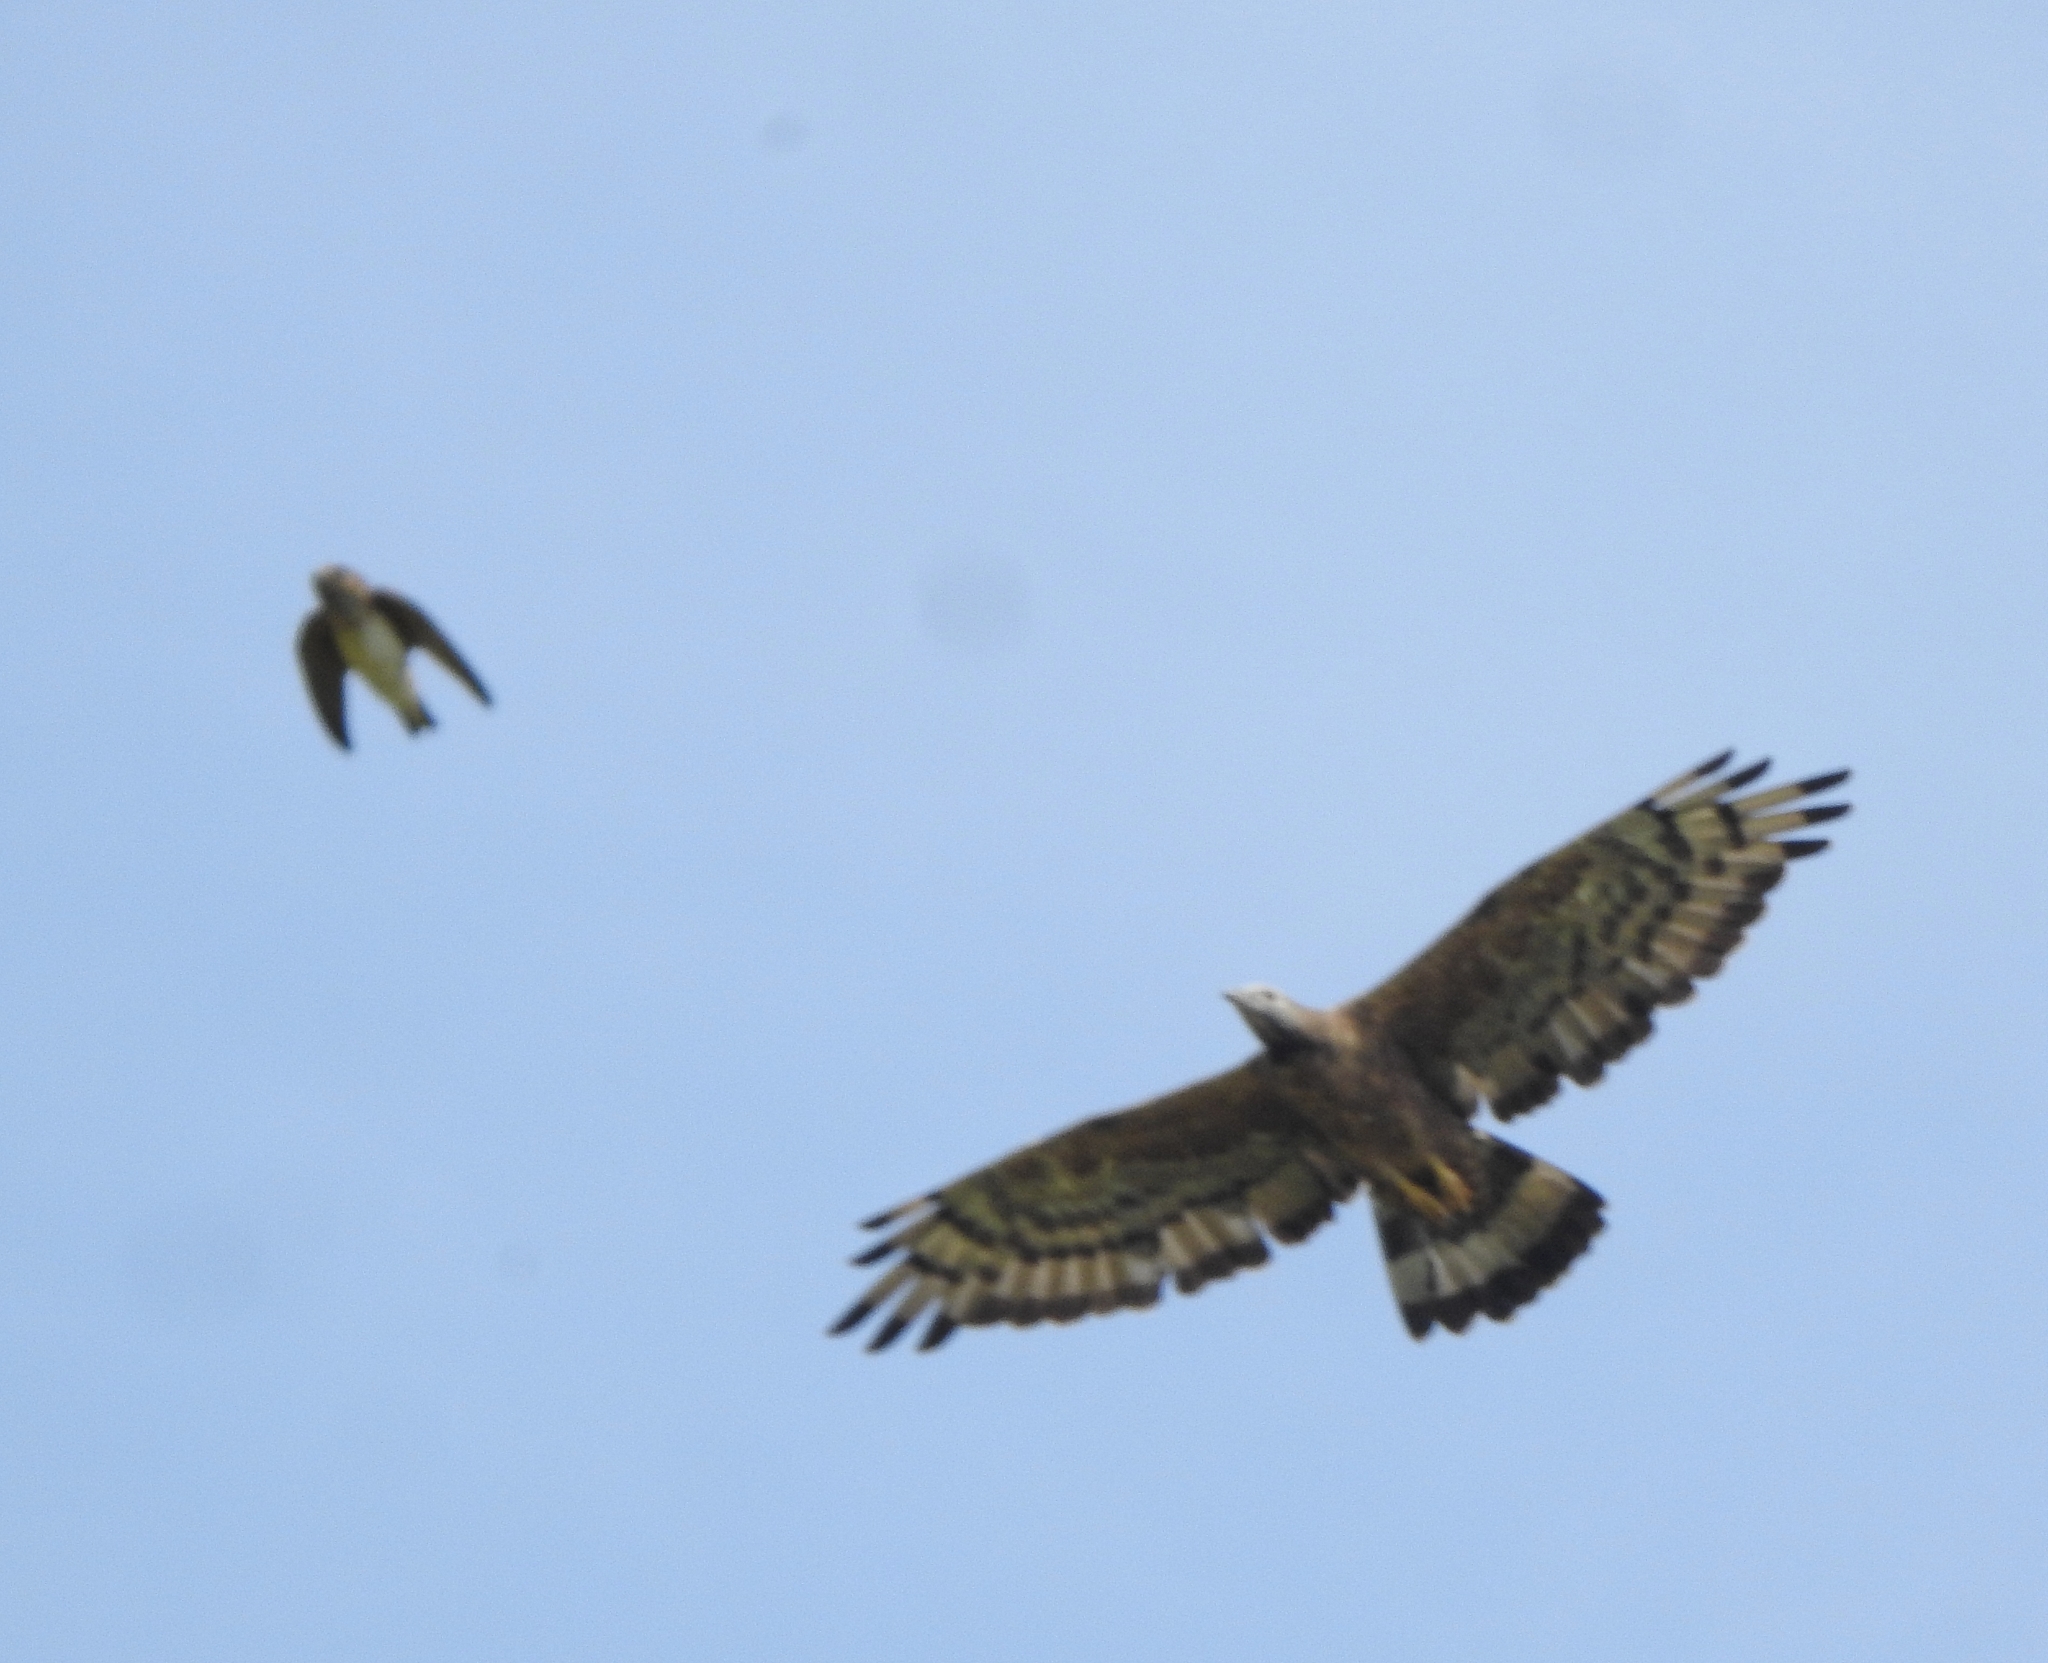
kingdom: Animalia
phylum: Chordata
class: Aves
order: Accipitriformes
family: Accipitridae
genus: Pernis
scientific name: Pernis ptilorhynchus
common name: Crested honey buzzard
